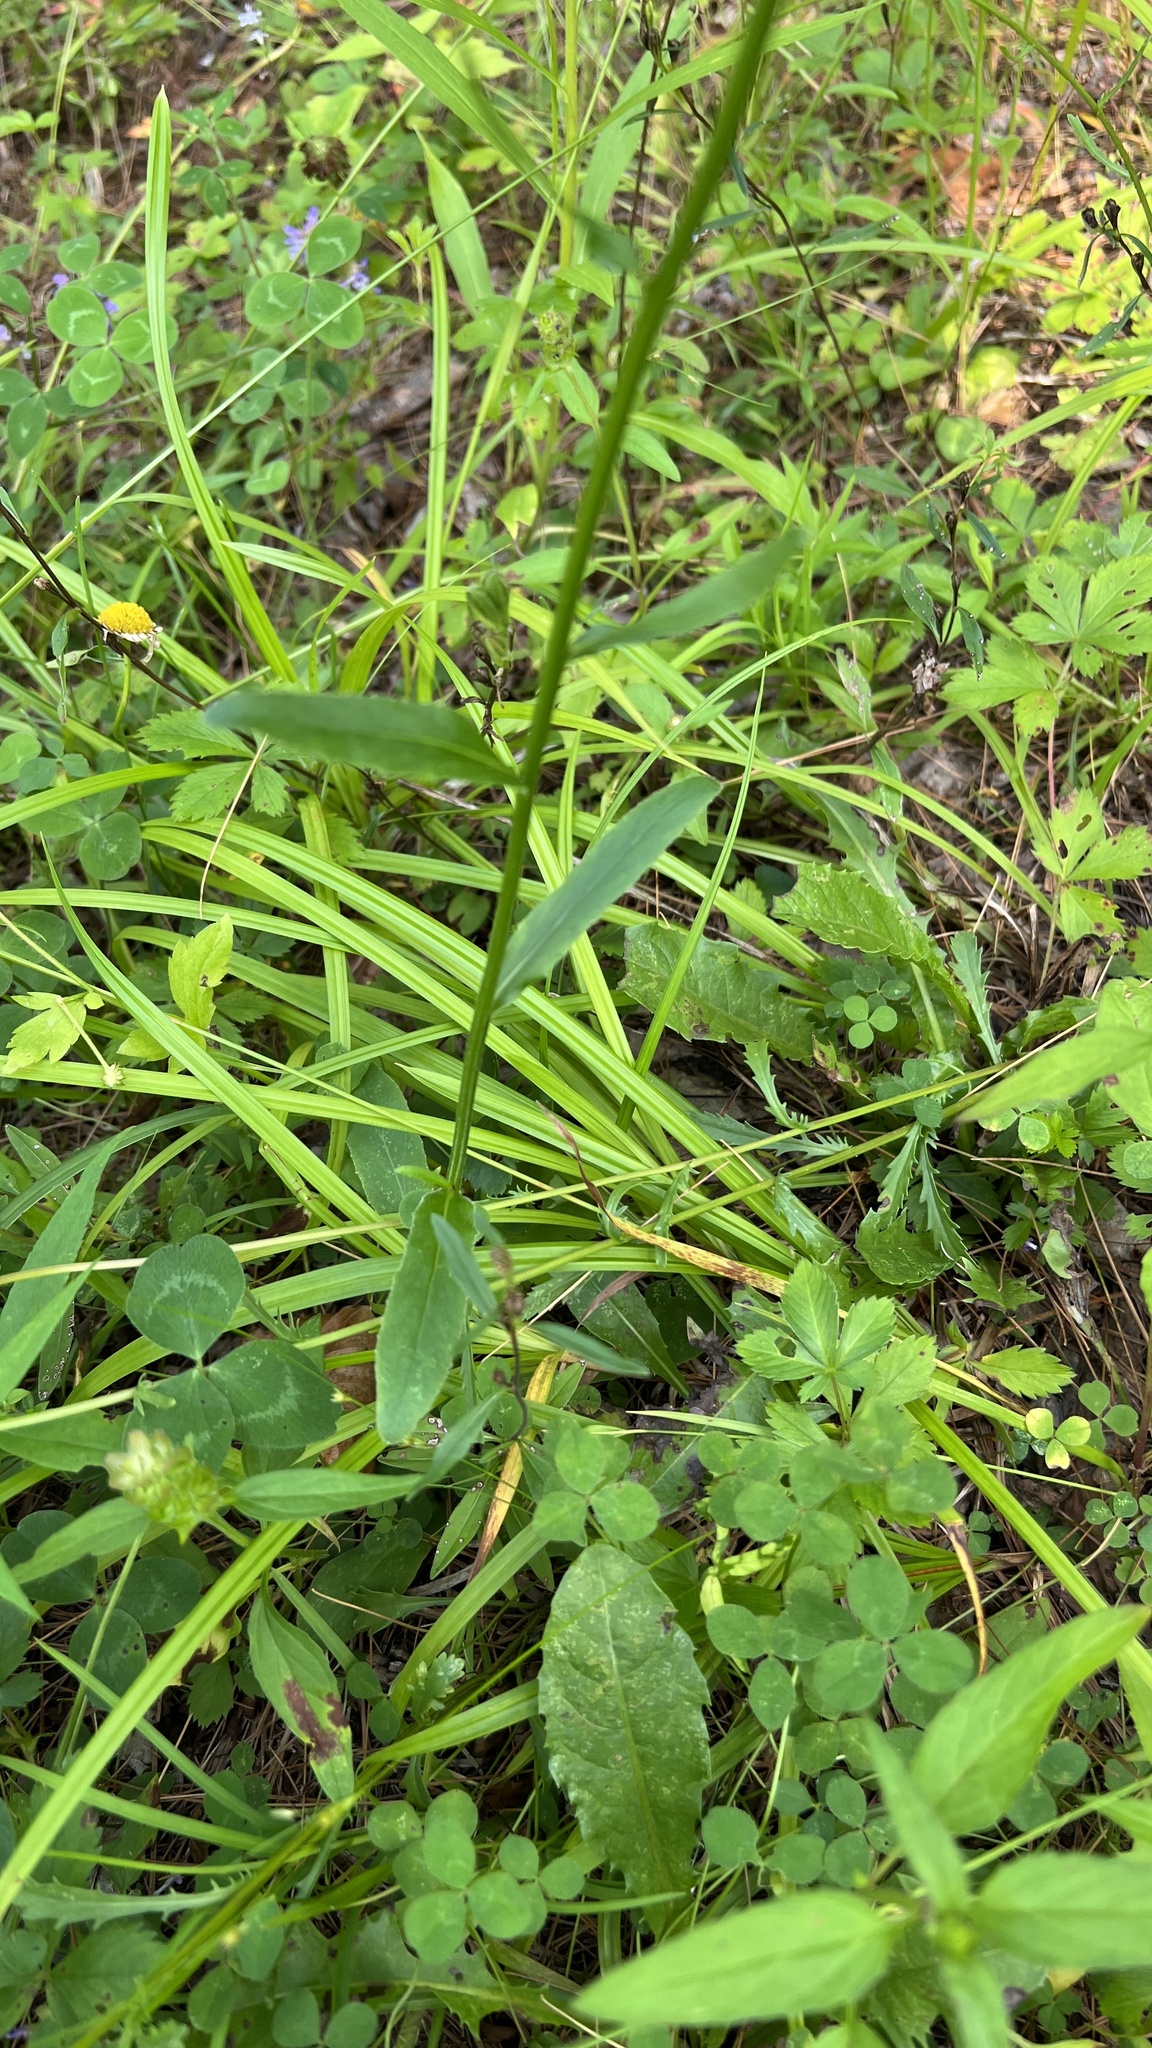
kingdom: Plantae
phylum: Tracheophyta
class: Magnoliopsida
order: Asterales
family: Campanulaceae
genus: Lobelia
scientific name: Lobelia spicata
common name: Pale-spike lobelia
